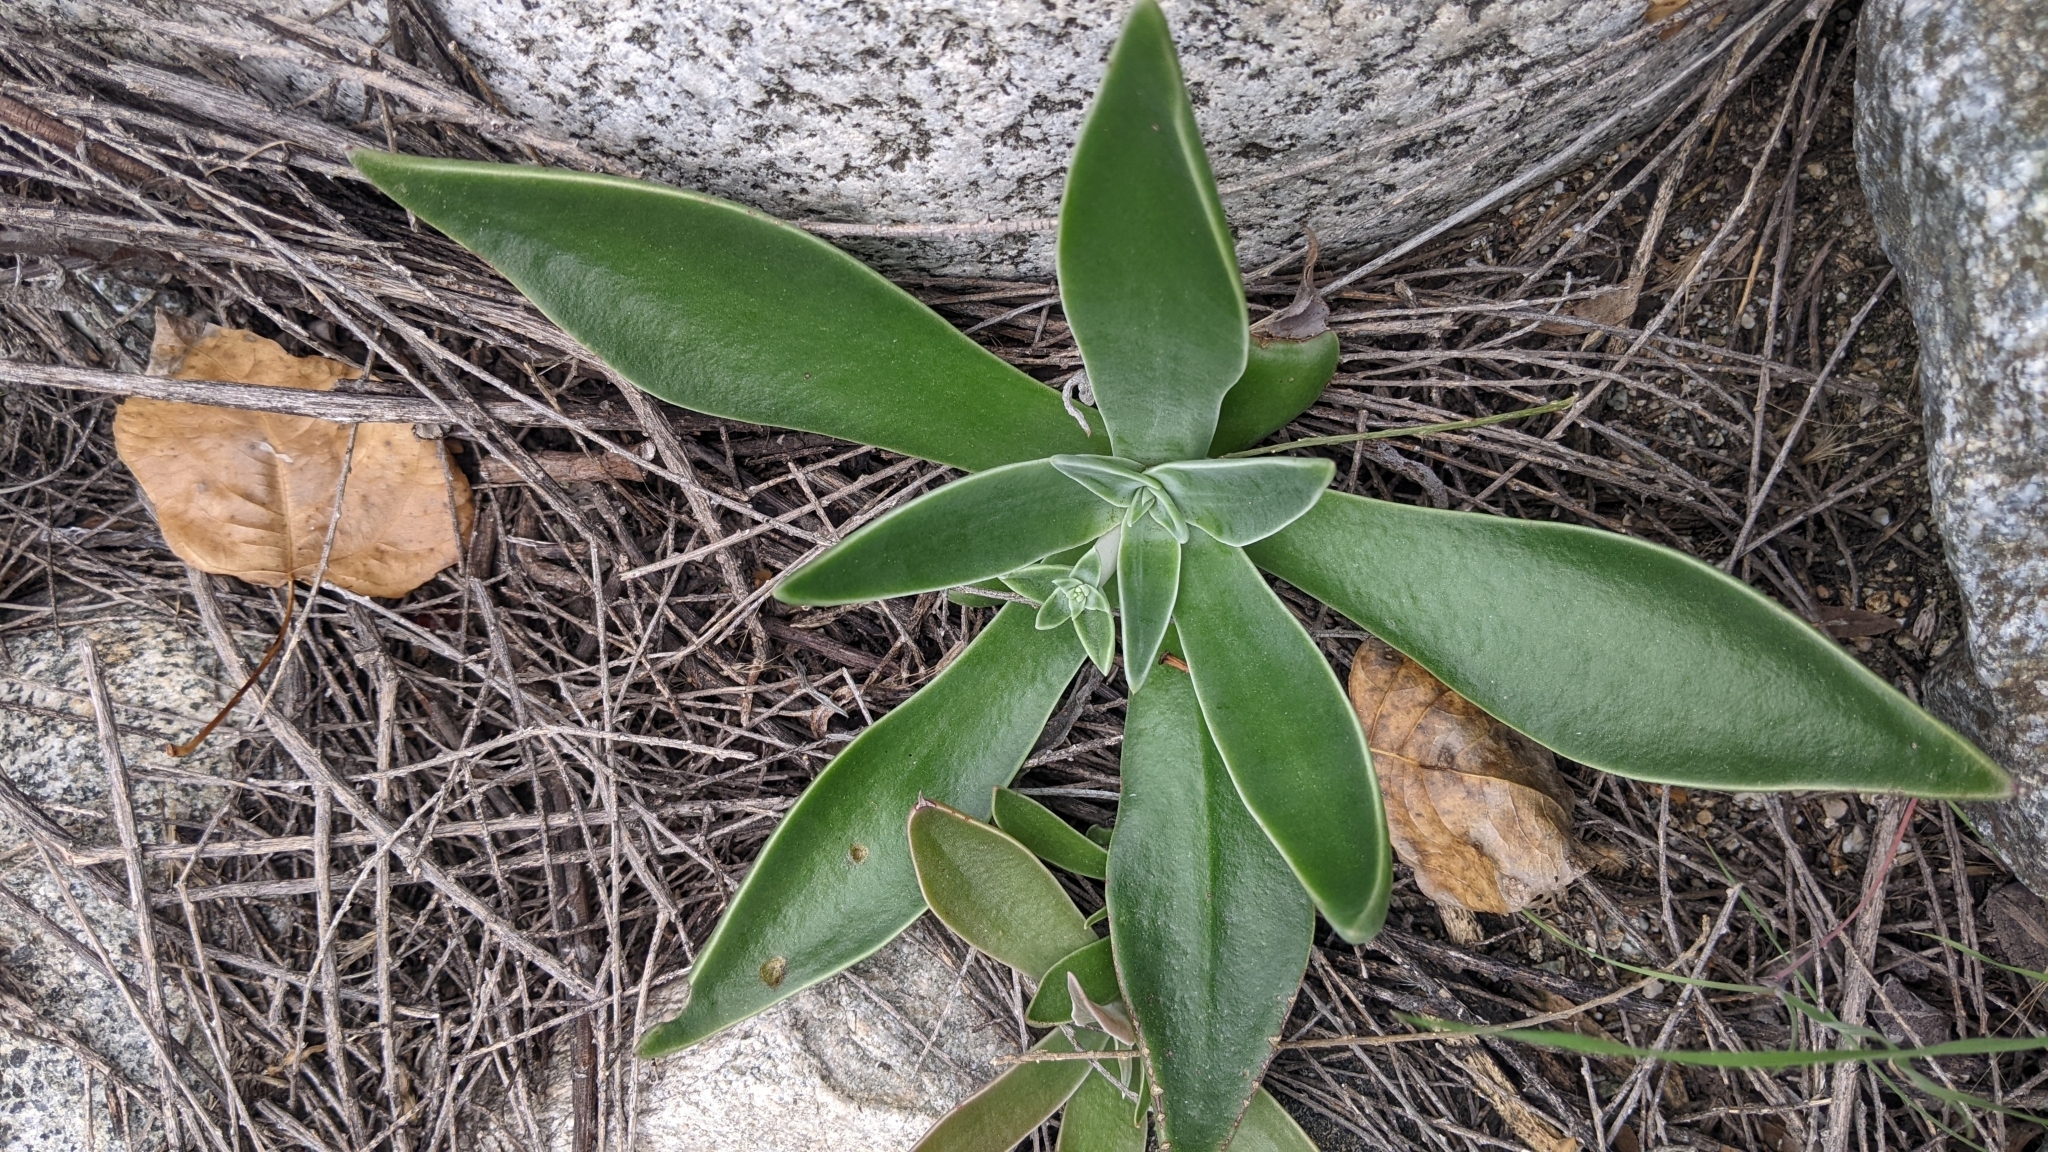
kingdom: Plantae
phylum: Tracheophyta
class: Magnoliopsida
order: Saxifragales
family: Crassulaceae
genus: Dudleya
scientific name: Dudleya lanceolata
